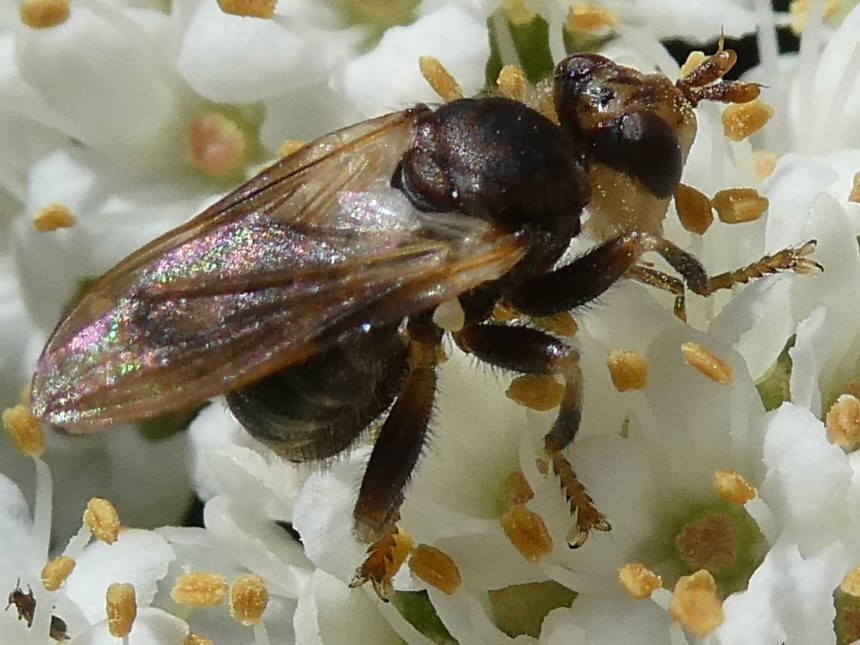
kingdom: Animalia
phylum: Arthropoda
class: Insecta
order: Diptera
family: Conopidae
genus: Myopa
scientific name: Myopa vesiculosa
